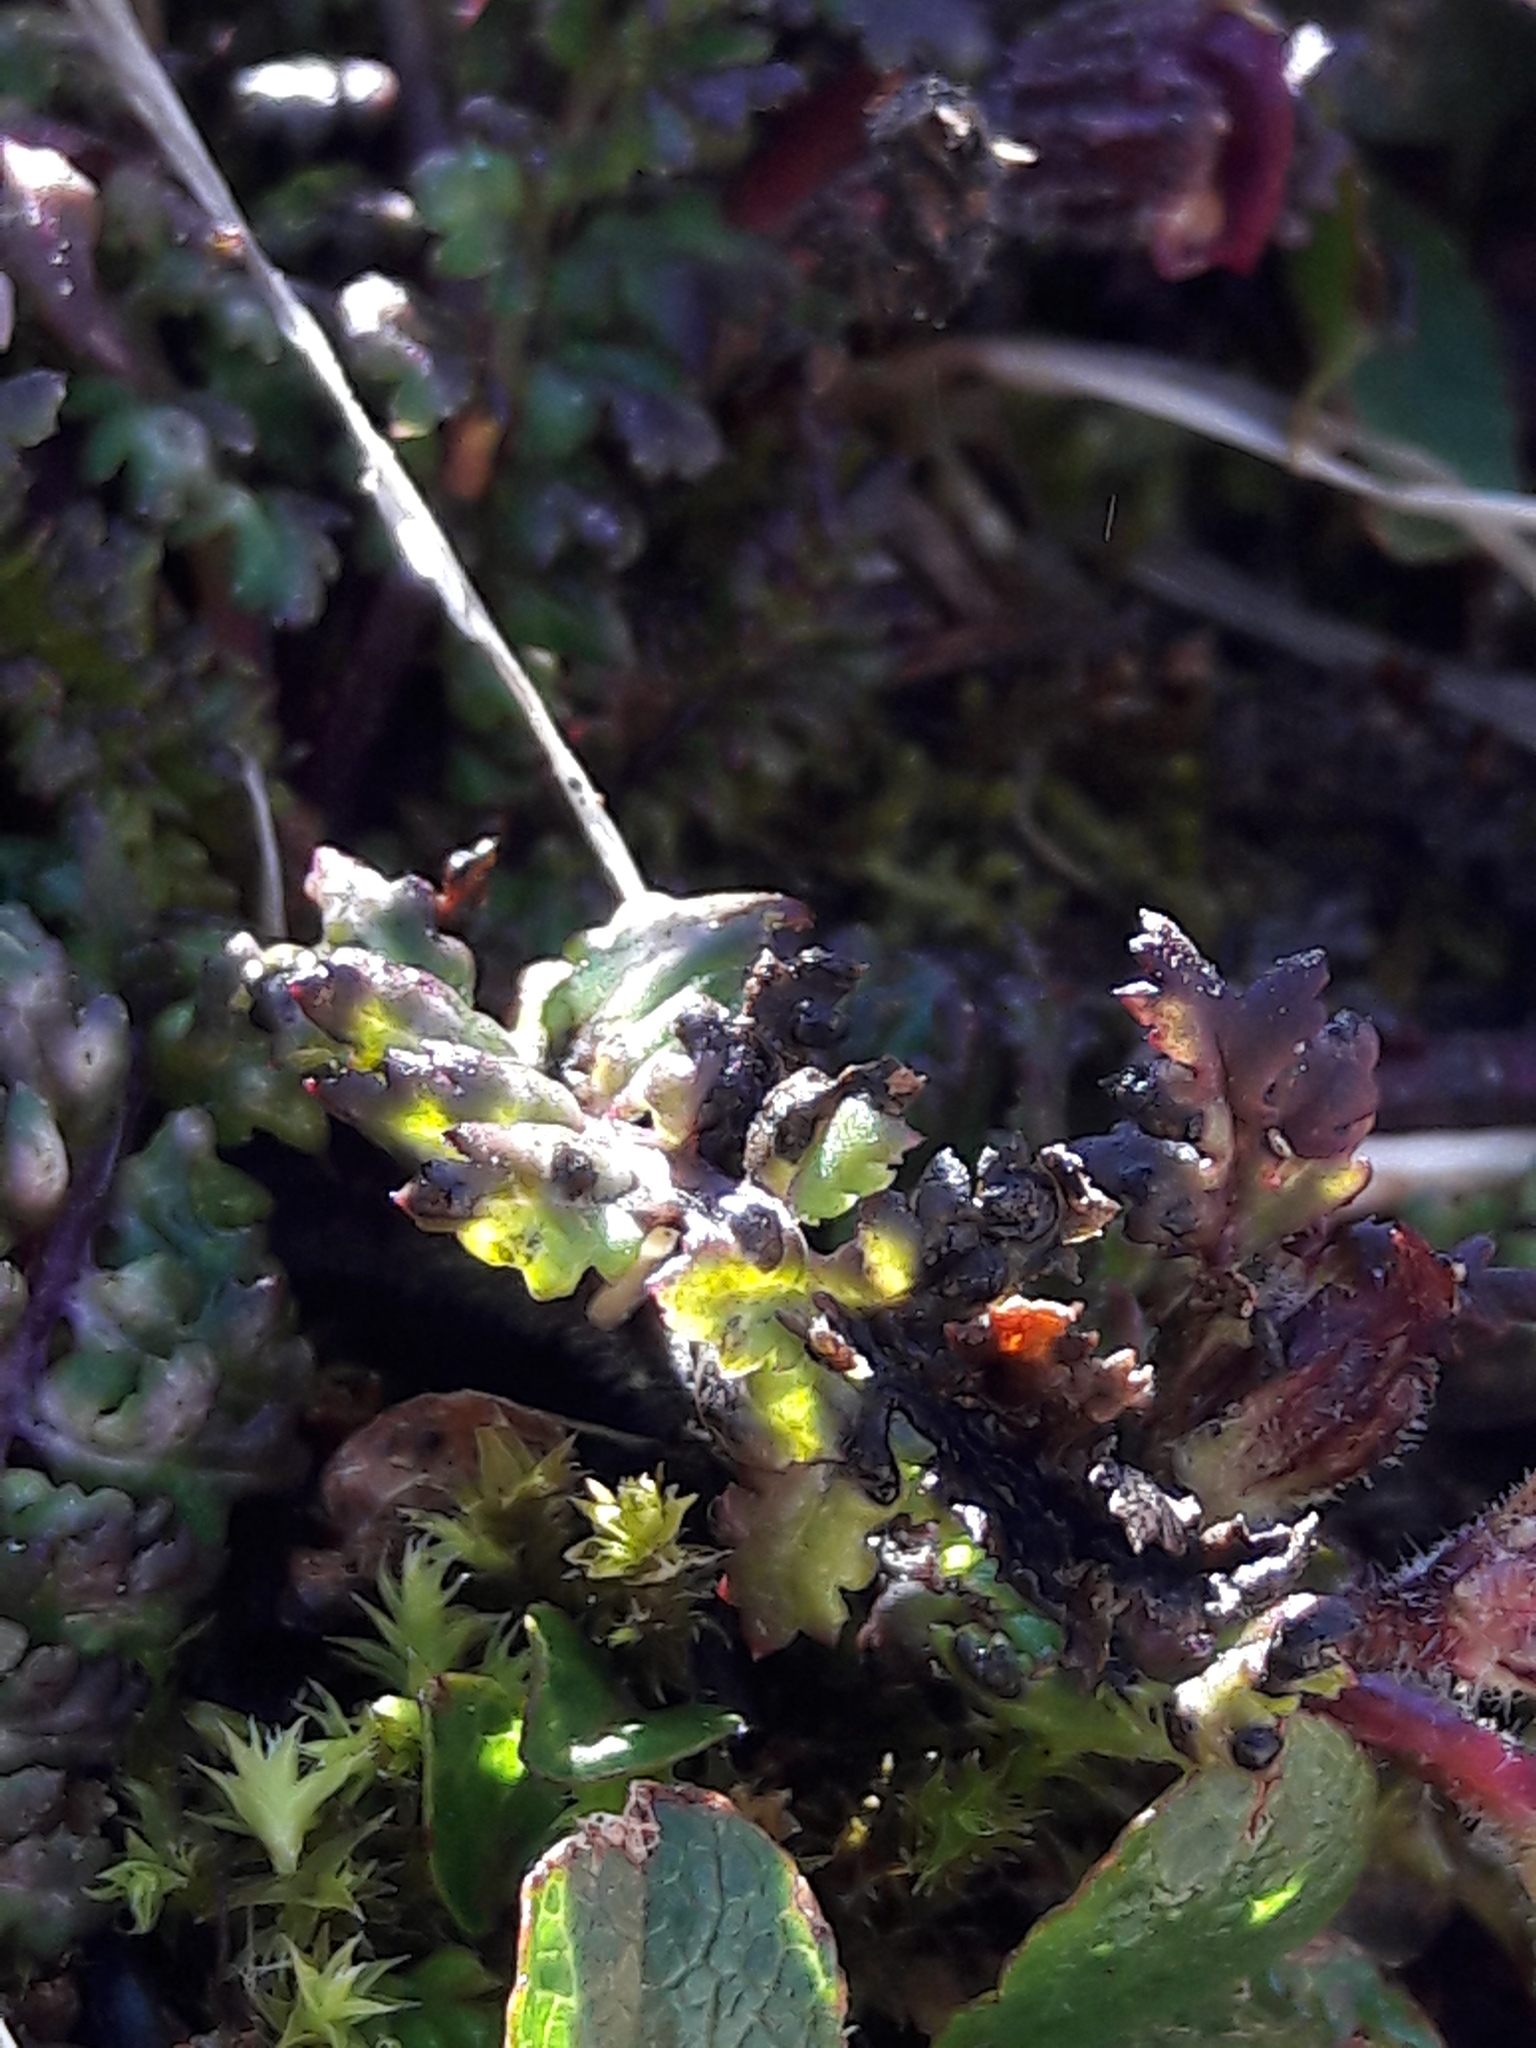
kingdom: Plantae
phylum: Tracheophyta
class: Magnoliopsida
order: Lamiales
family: Orobanchaceae
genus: Pedicularis
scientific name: Pedicularis kerneri
